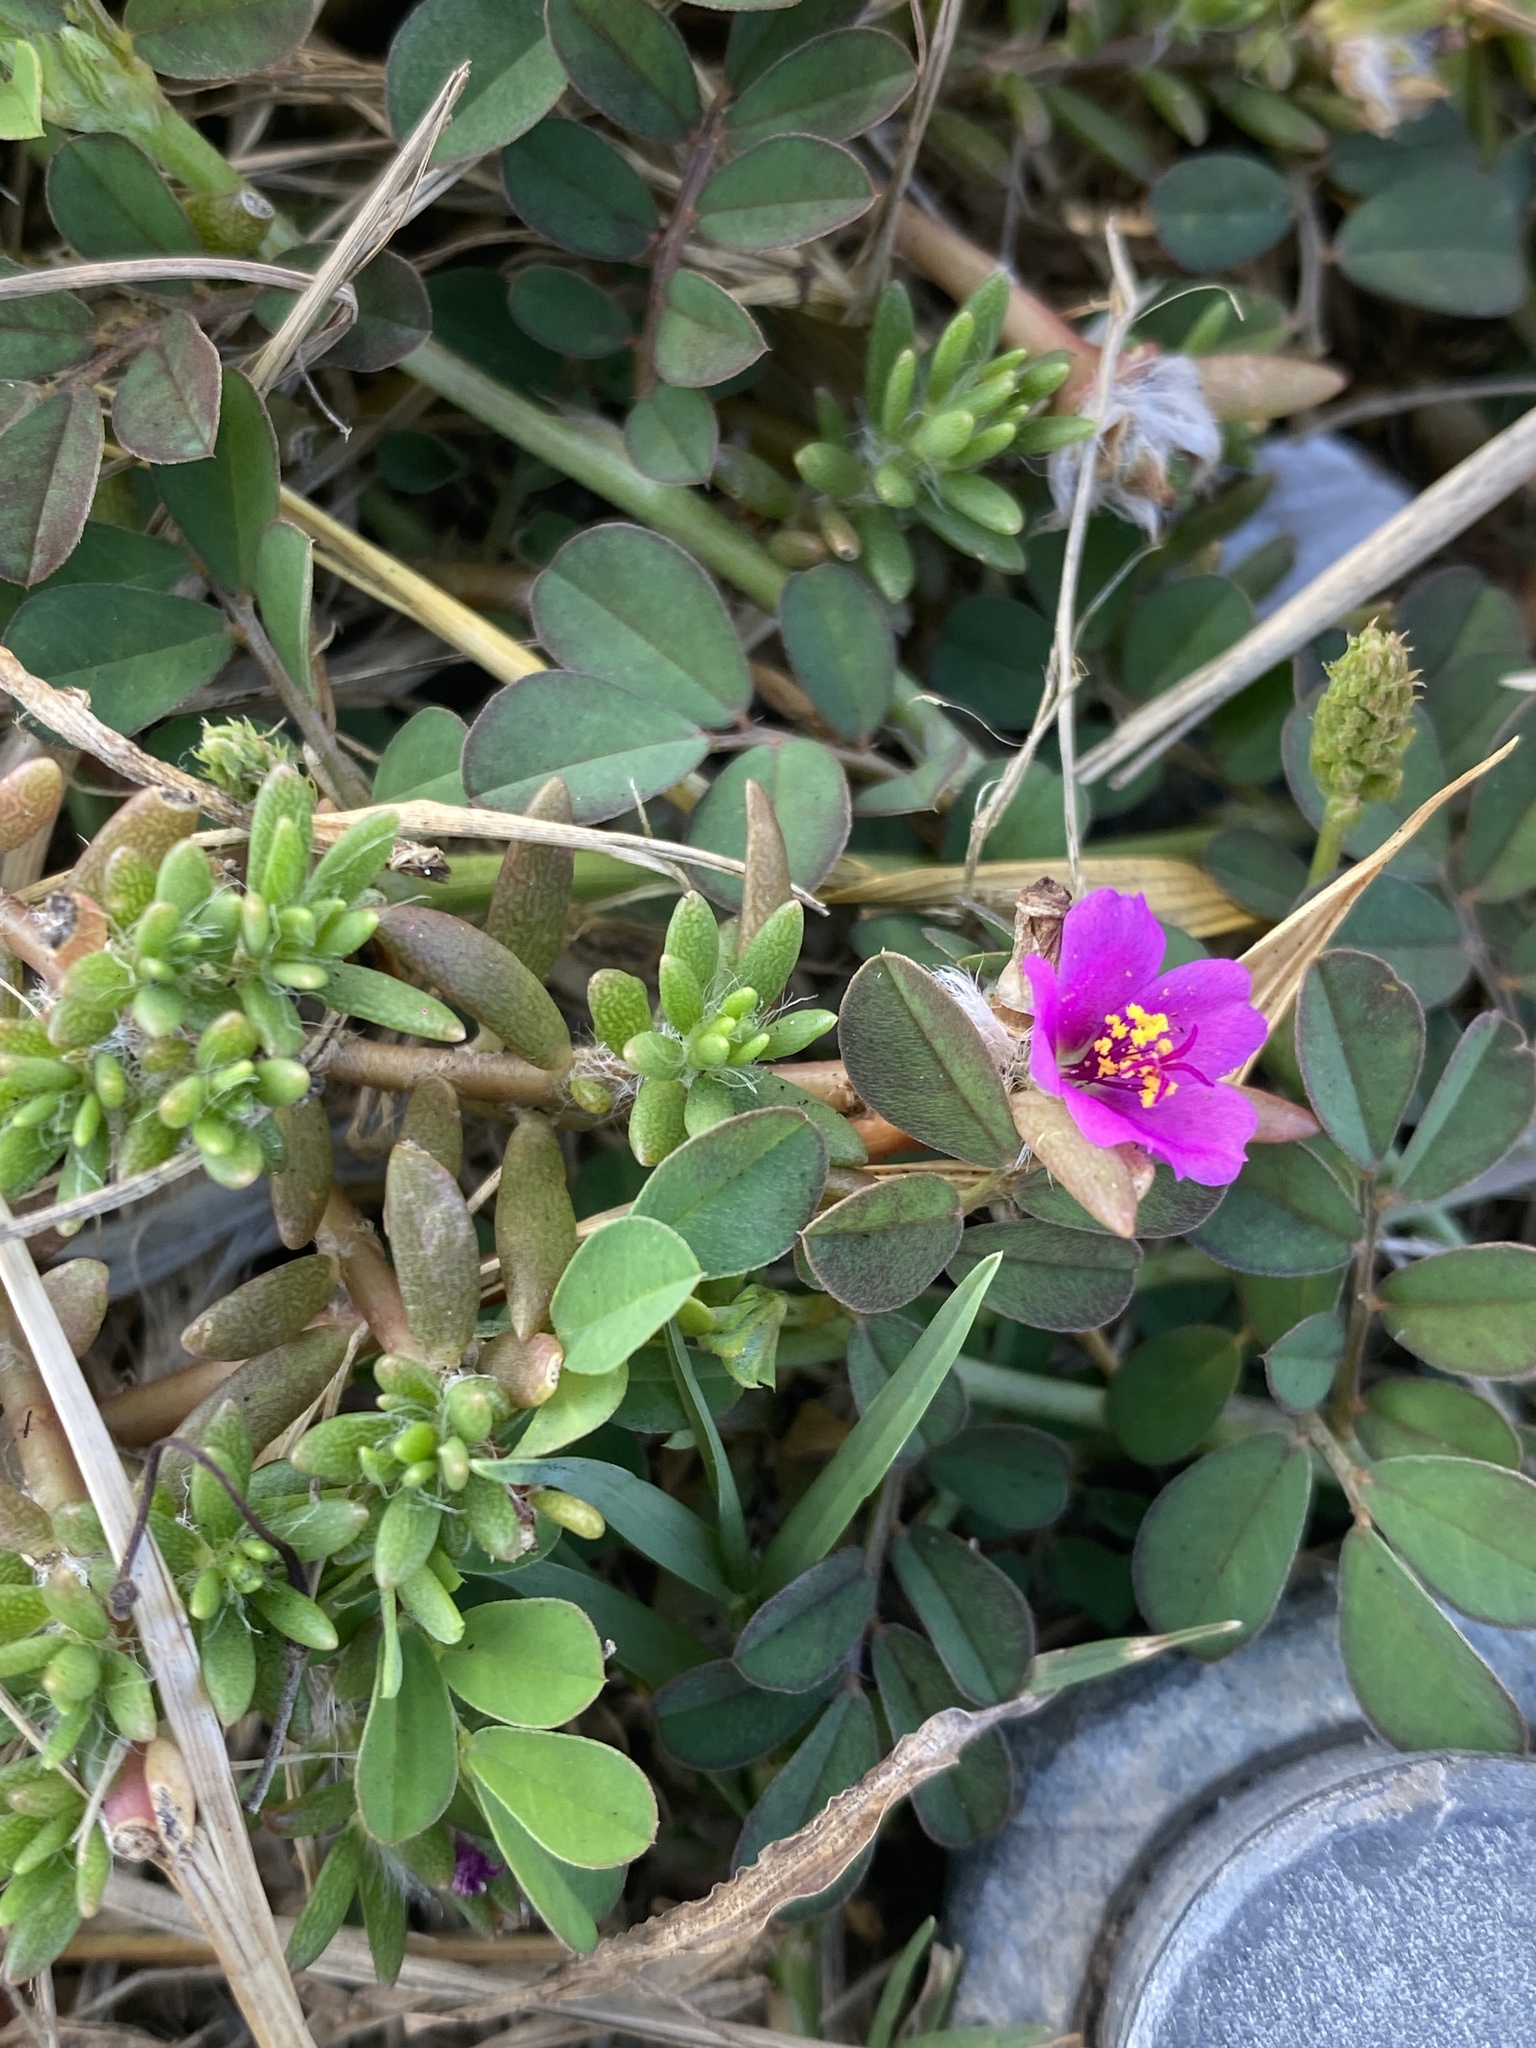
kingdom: Plantae
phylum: Tracheophyta
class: Magnoliopsida
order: Caryophyllales
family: Portulacaceae
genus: Portulaca
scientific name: Portulaca pilosa
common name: Kiss me quick
